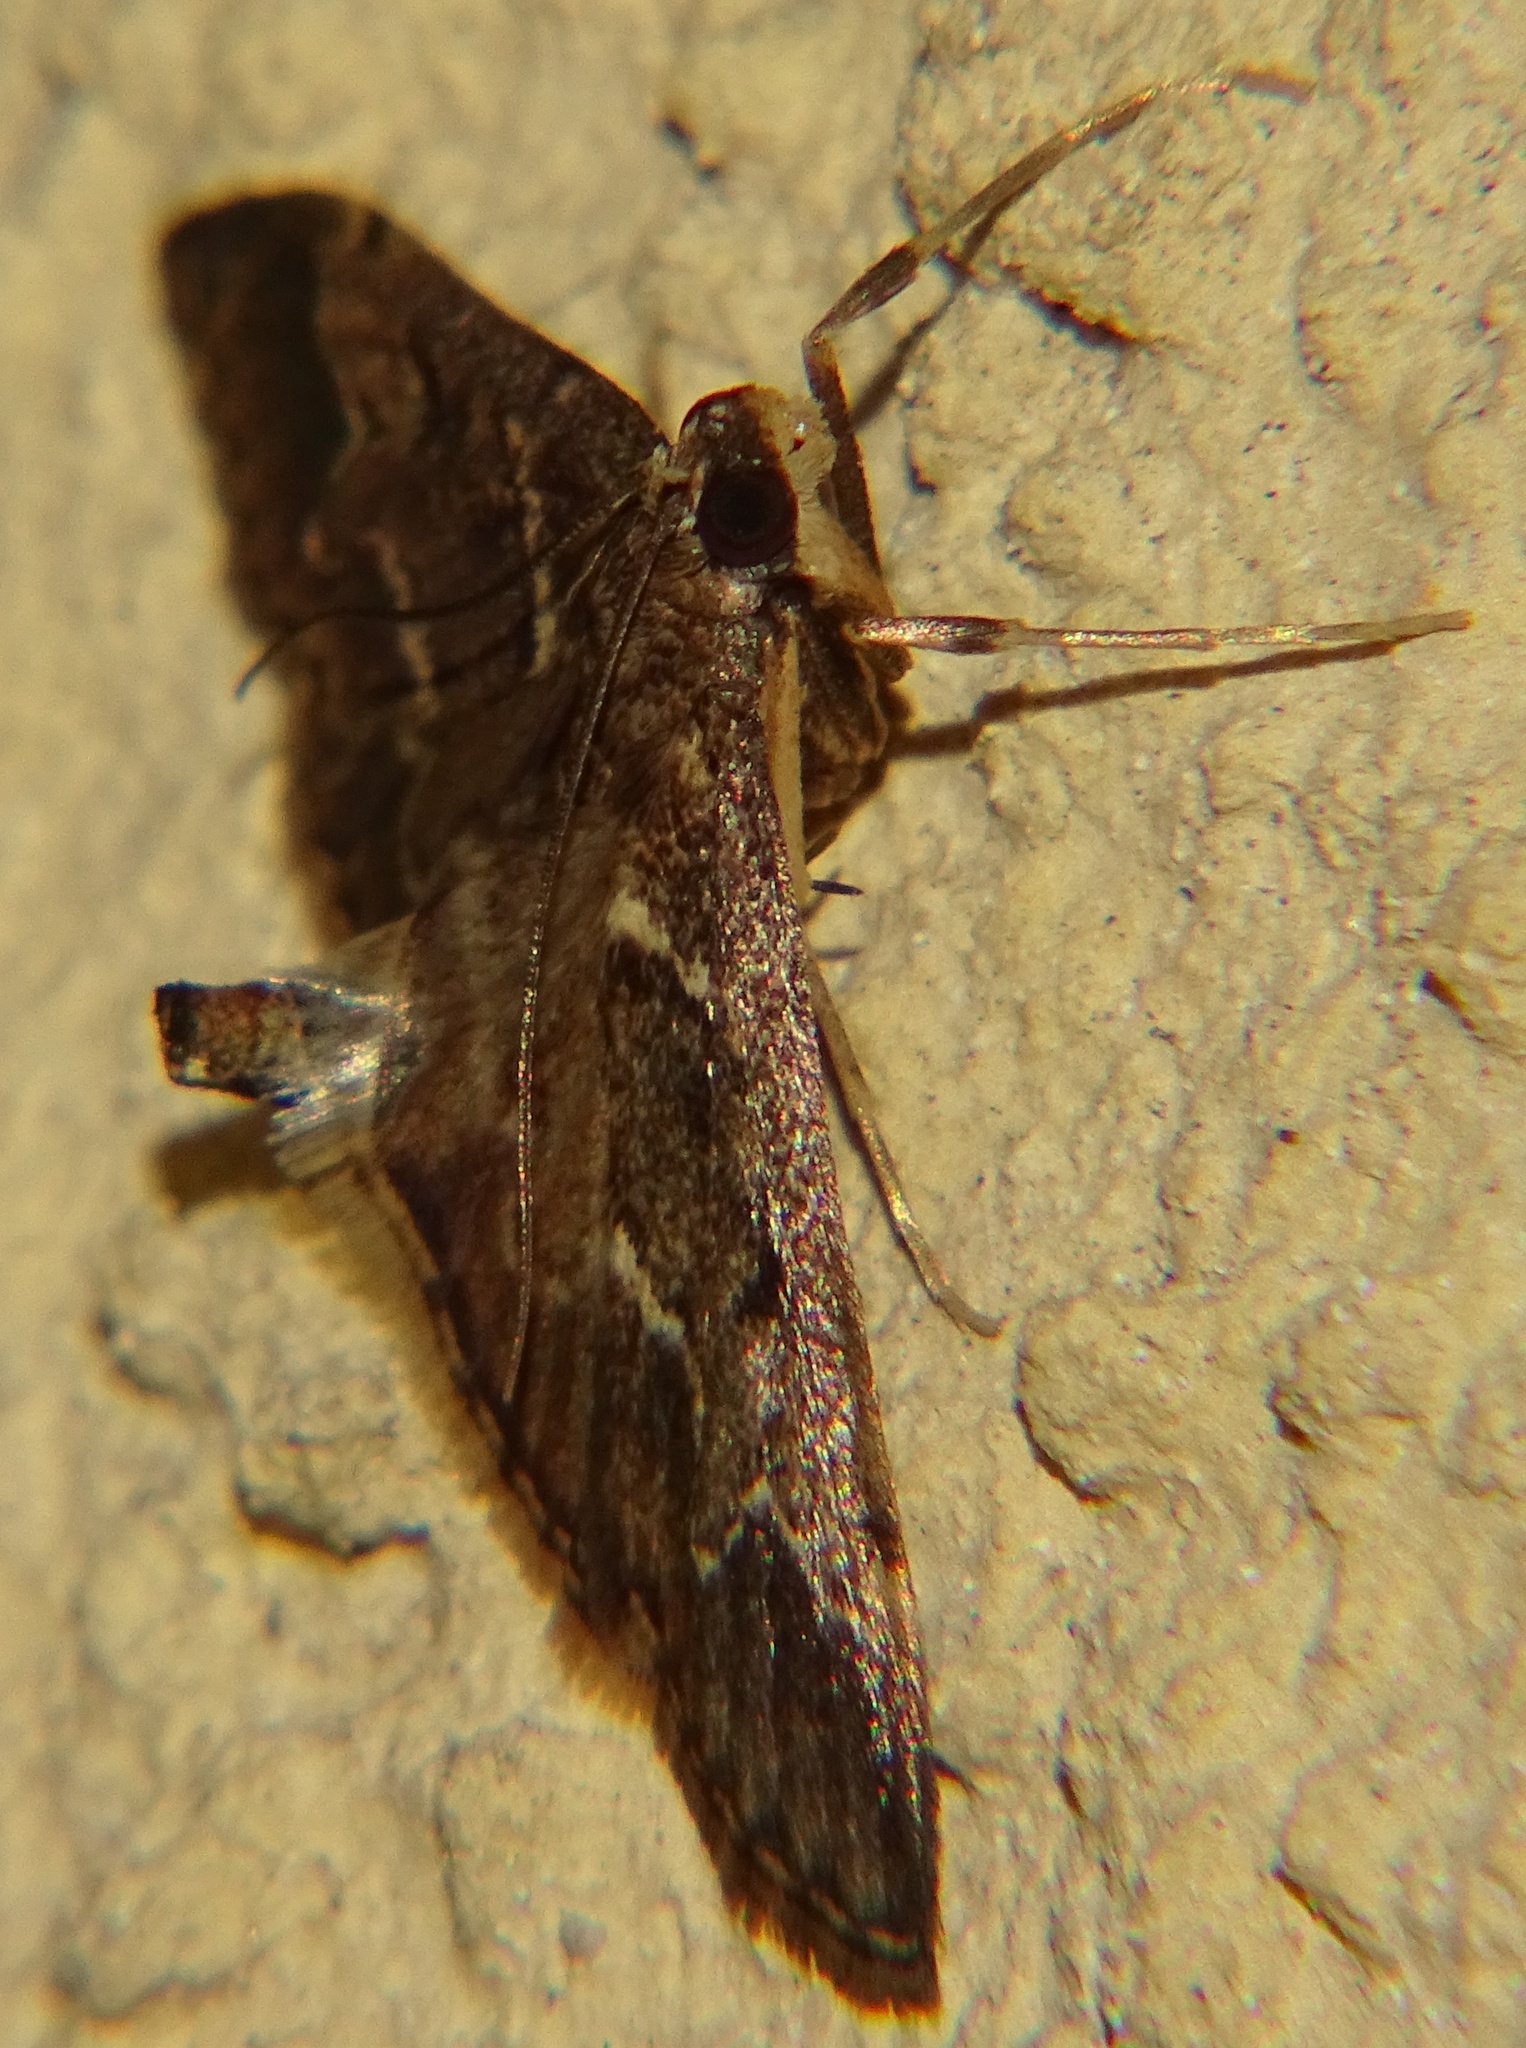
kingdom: Animalia
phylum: Arthropoda
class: Insecta
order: Lepidoptera
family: Crambidae
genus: Duponchelia
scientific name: Duponchelia fovealis
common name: Crambid moth
